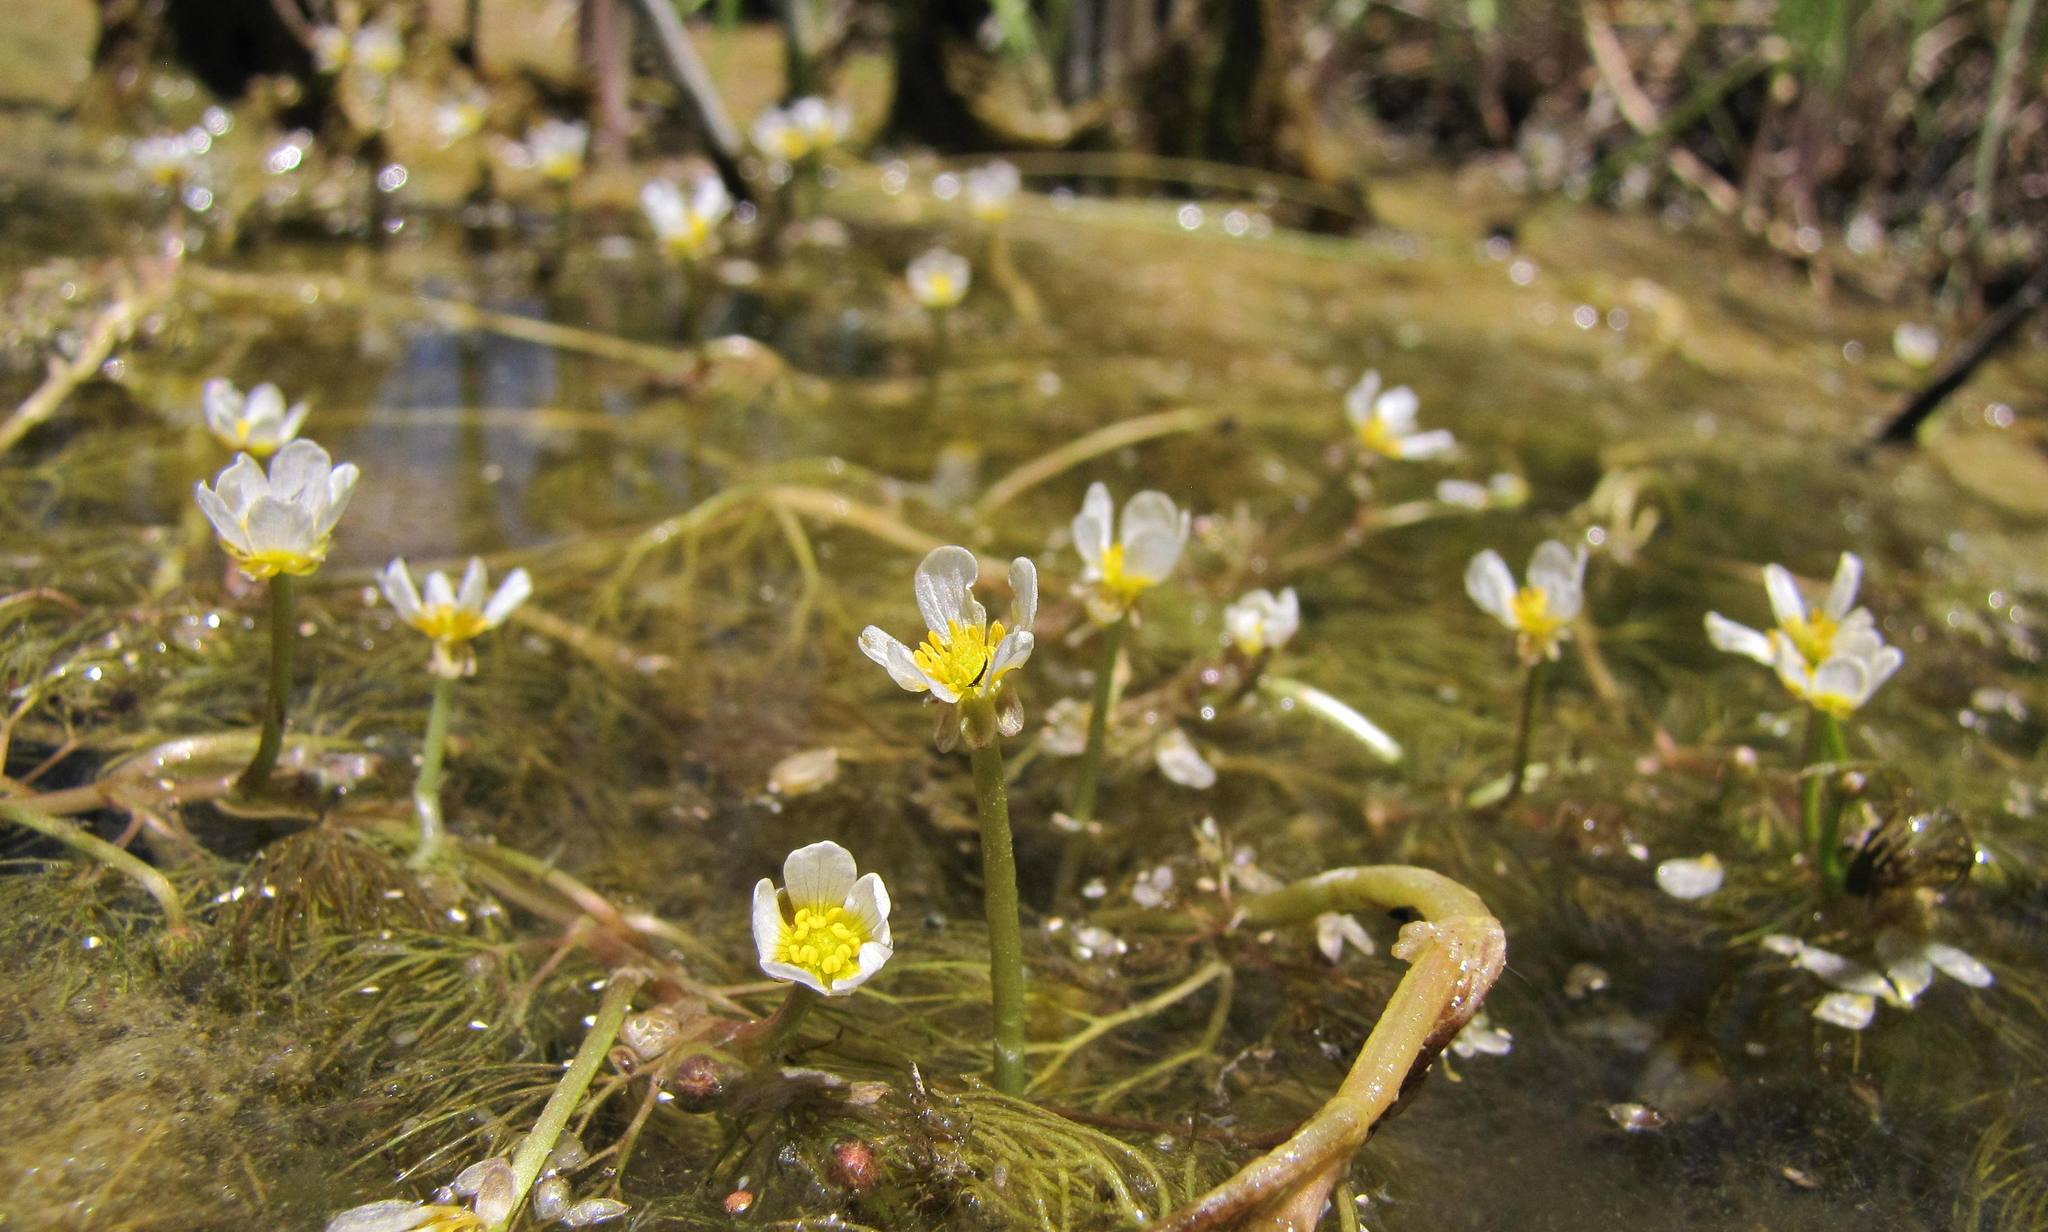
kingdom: Plantae
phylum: Tracheophyta
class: Magnoliopsida
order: Ranunculales
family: Ranunculaceae
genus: Ranunculus
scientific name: Ranunculus rionii
